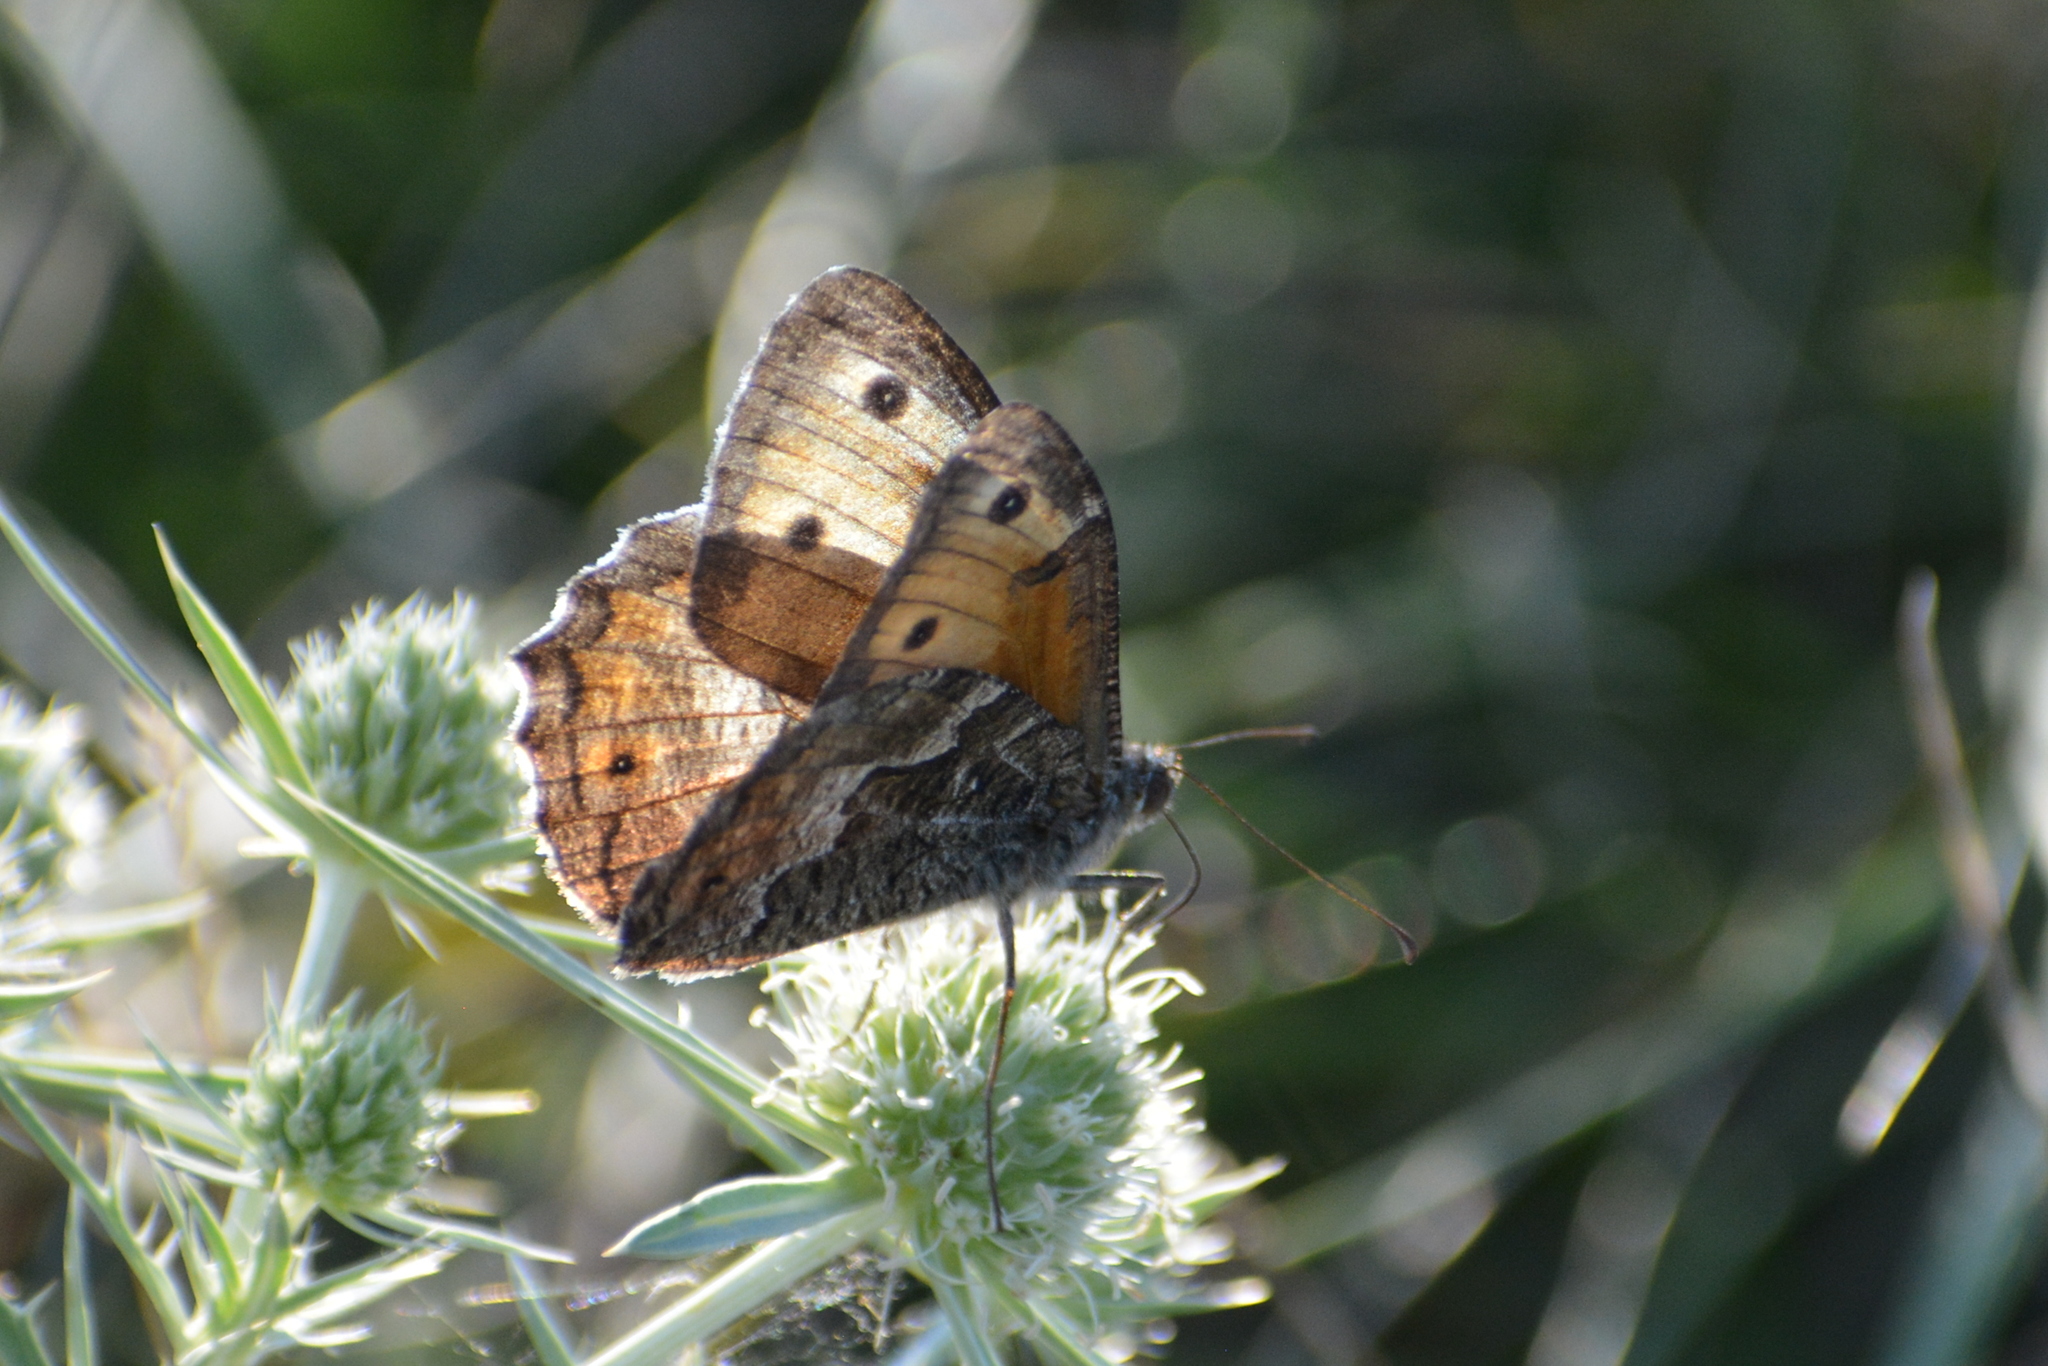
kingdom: Animalia
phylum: Arthropoda
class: Insecta
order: Lepidoptera
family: Nymphalidae
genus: Hipparchia
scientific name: Hipparchia semele
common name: Grayling
